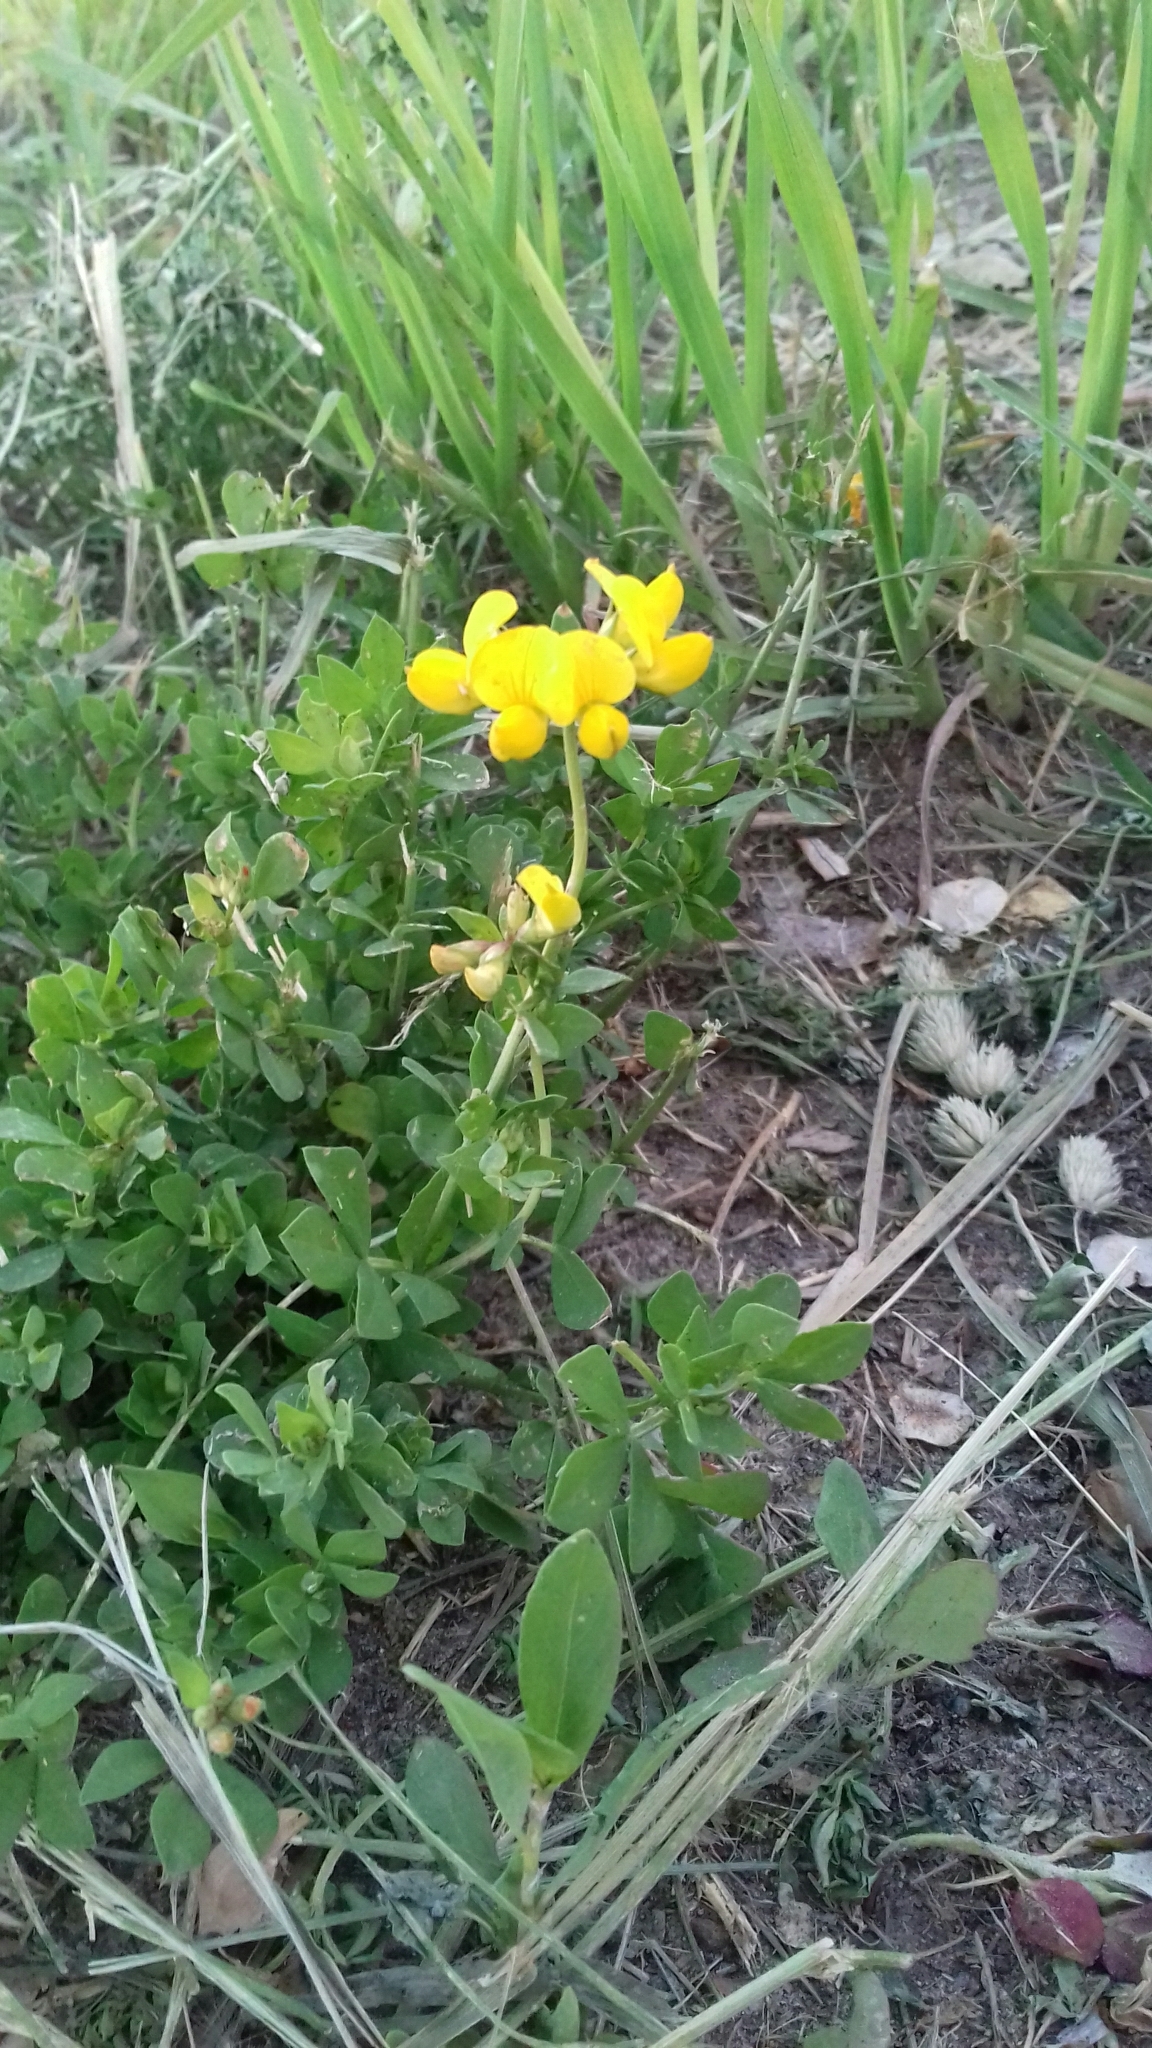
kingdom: Plantae
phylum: Tracheophyta
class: Magnoliopsida
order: Fabales
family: Fabaceae
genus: Lotus
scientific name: Lotus corniculatus
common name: Common bird's-foot-trefoil
